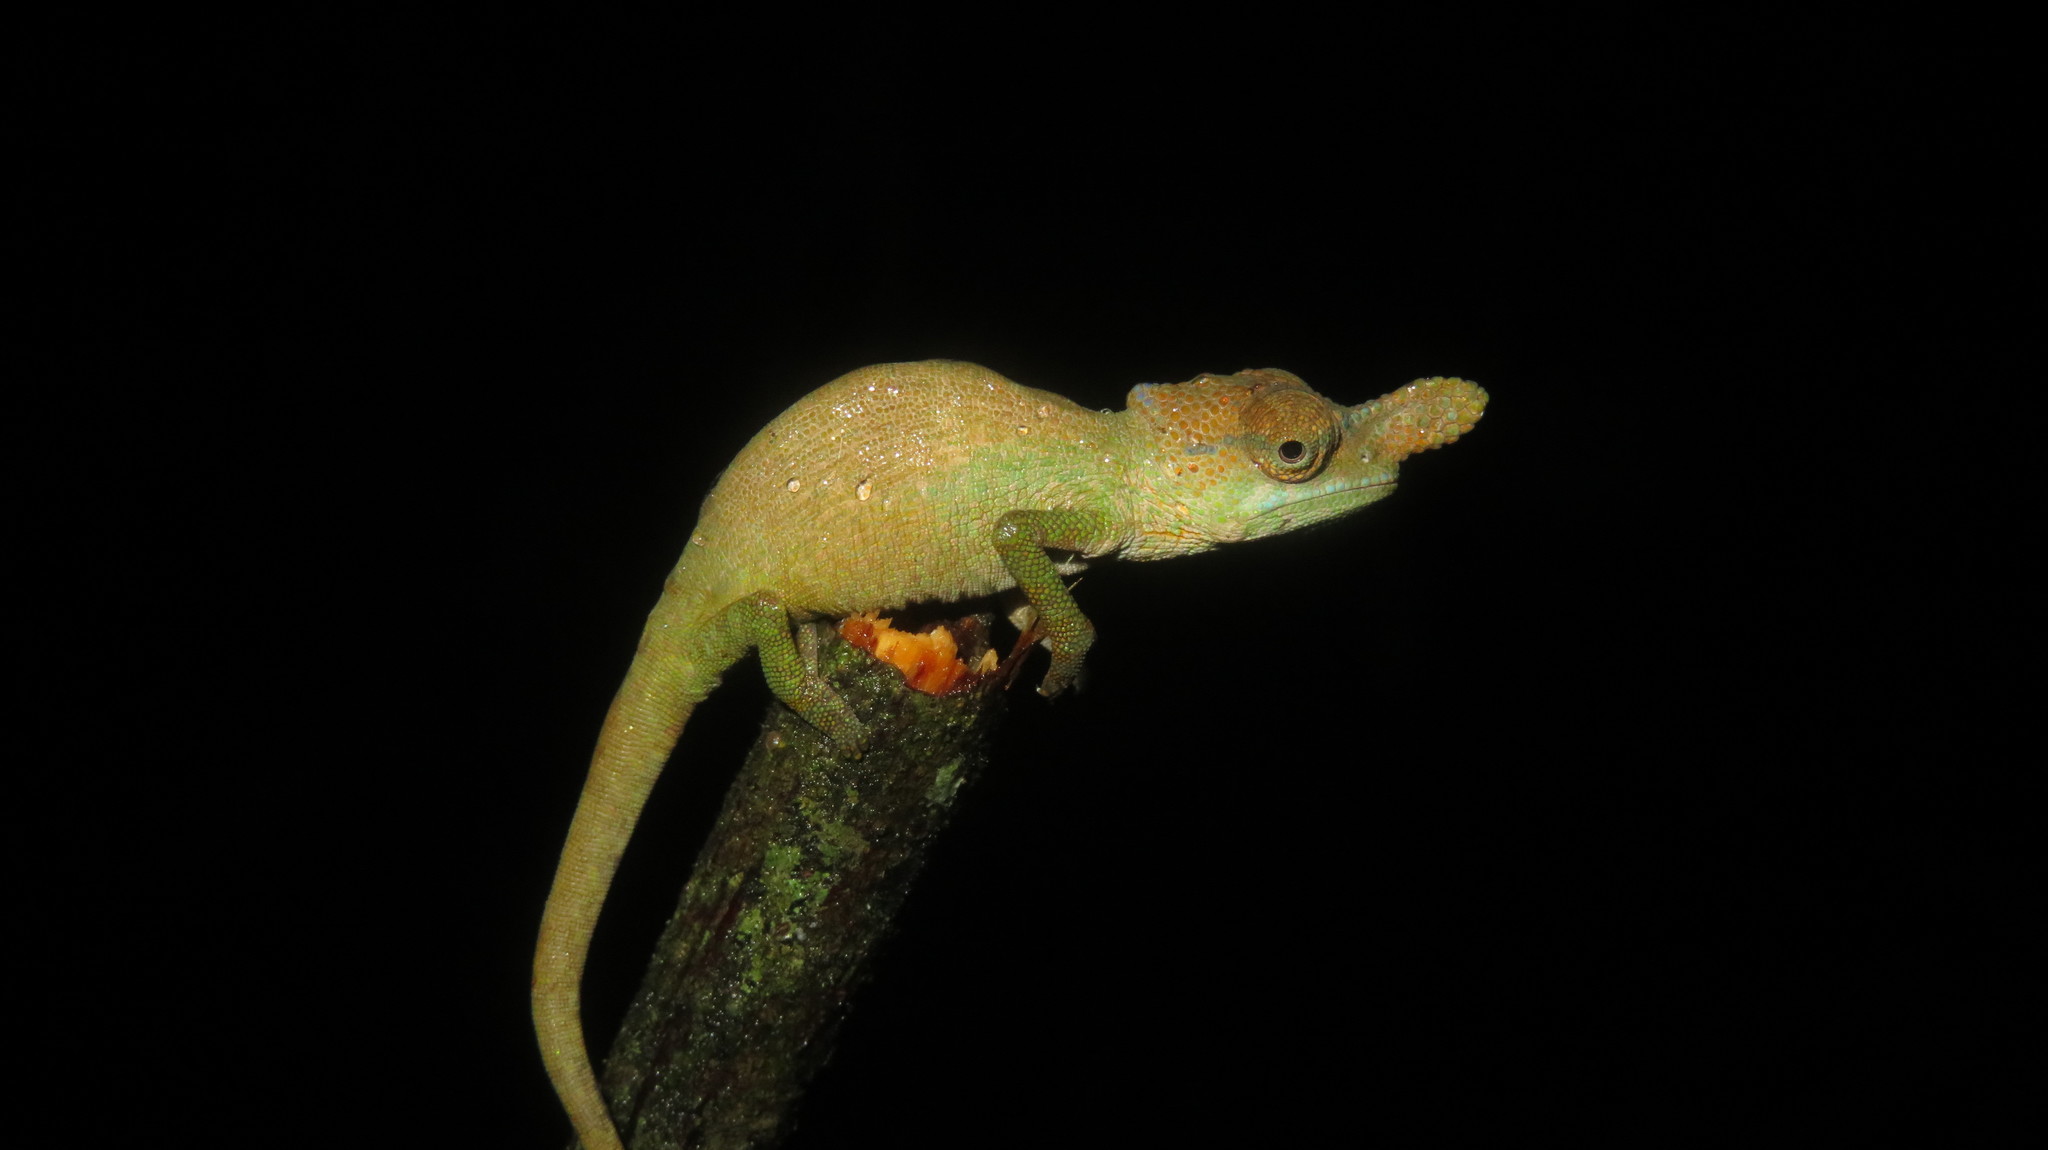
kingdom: Animalia
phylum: Chordata
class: Squamata
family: Chamaeleonidae
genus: Kinyongia
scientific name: Kinyongia oxyrhina
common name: Rednose dwarf chameleon
